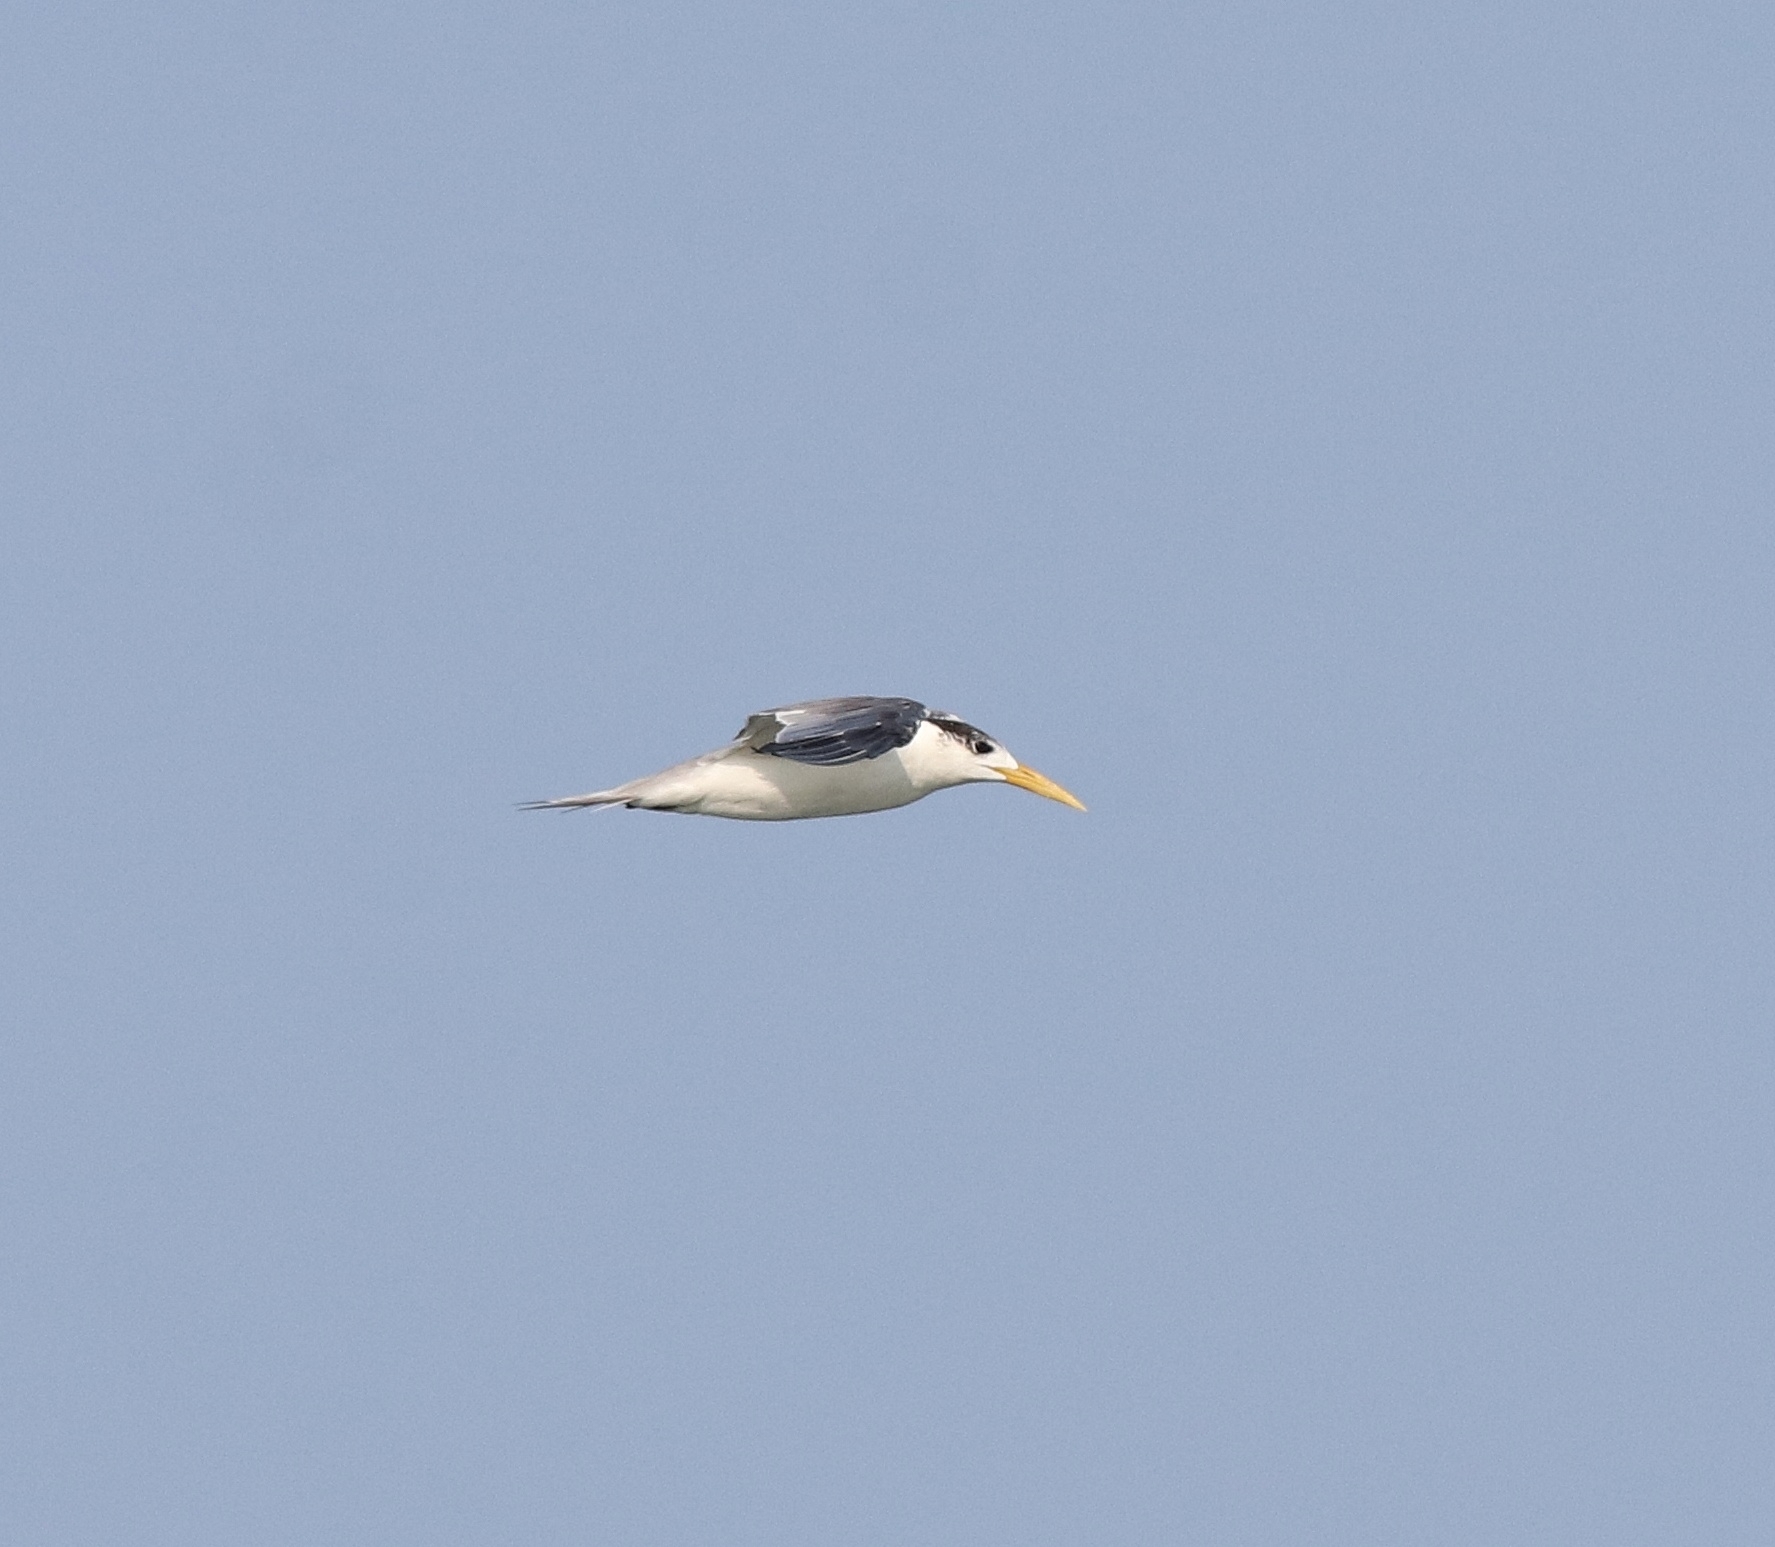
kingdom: Animalia
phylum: Chordata
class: Aves
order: Charadriiformes
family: Laridae
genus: Thalasseus
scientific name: Thalasseus bergii
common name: Greater crested tern
